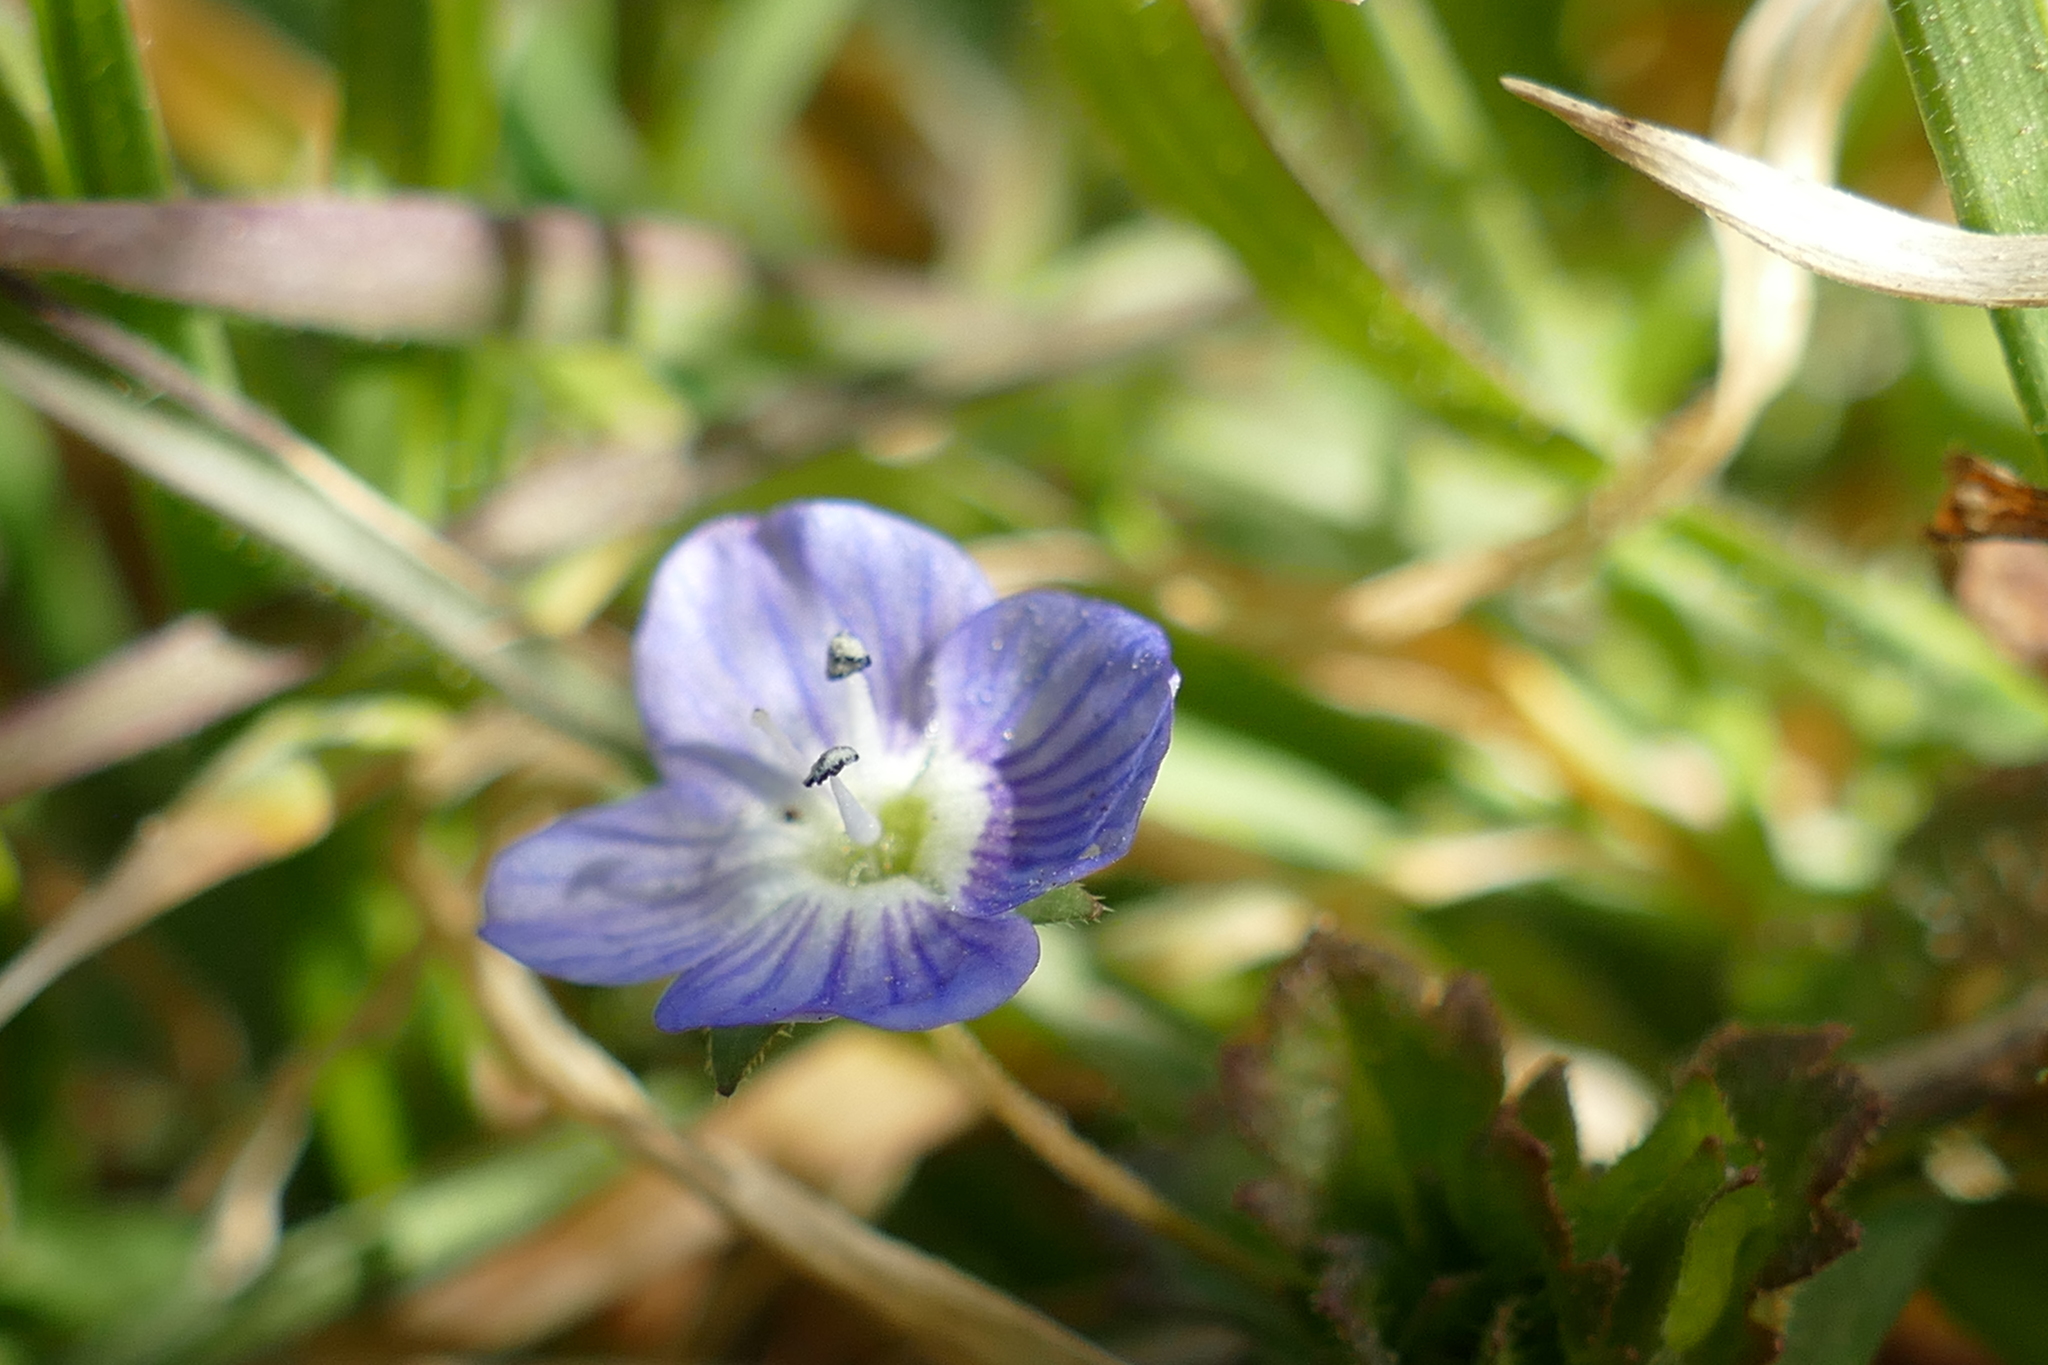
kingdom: Plantae
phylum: Tracheophyta
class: Magnoliopsida
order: Lamiales
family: Plantaginaceae
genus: Veronica
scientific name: Veronica persica
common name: Common field-speedwell
